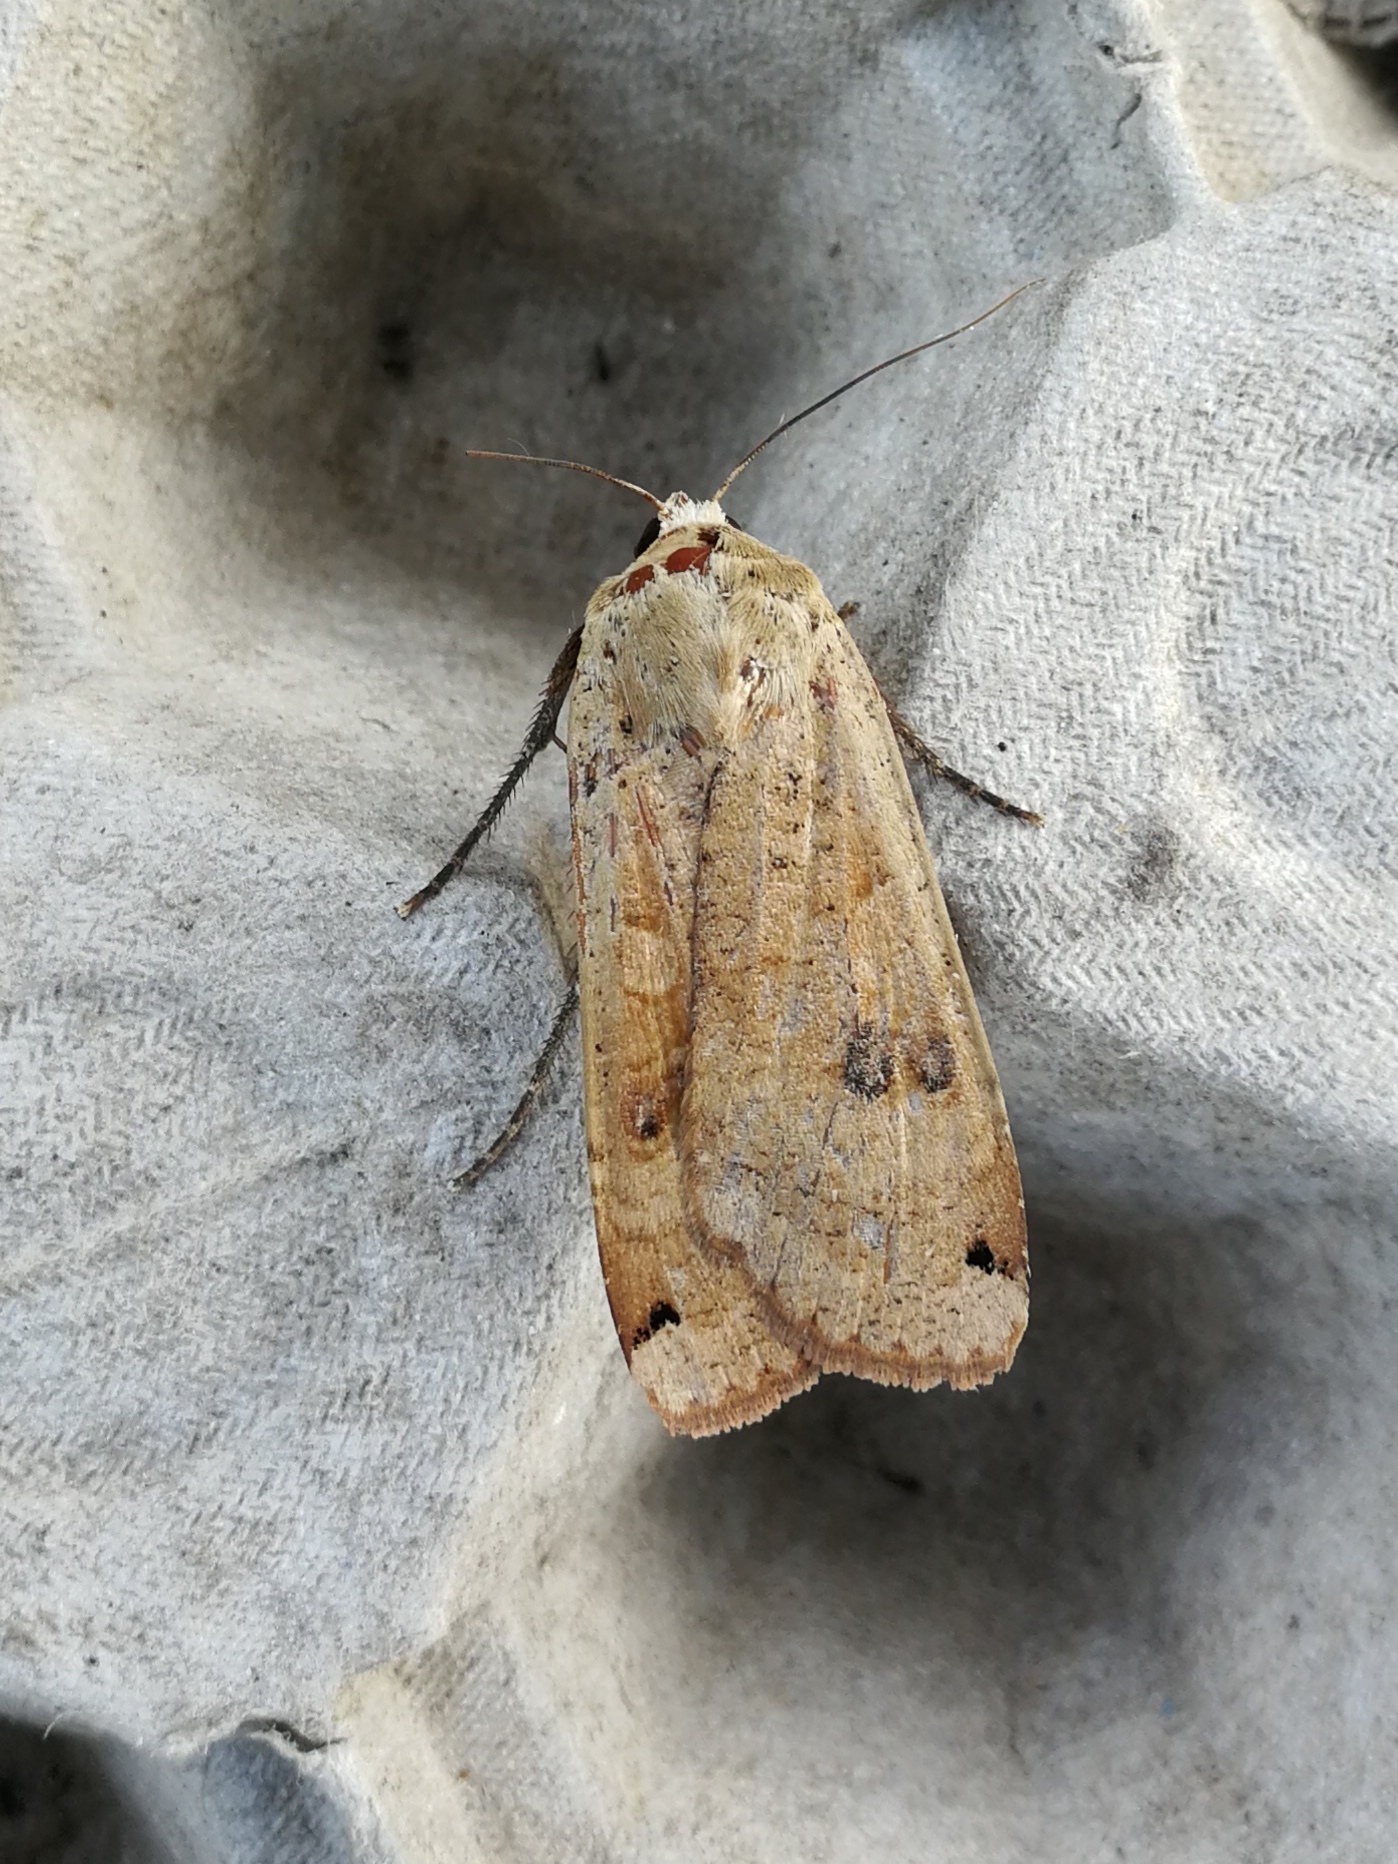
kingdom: Animalia
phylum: Arthropoda
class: Insecta
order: Lepidoptera
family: Noctuidae
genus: Noctua
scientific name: Noctua pronuba
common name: Large yellow underwing
